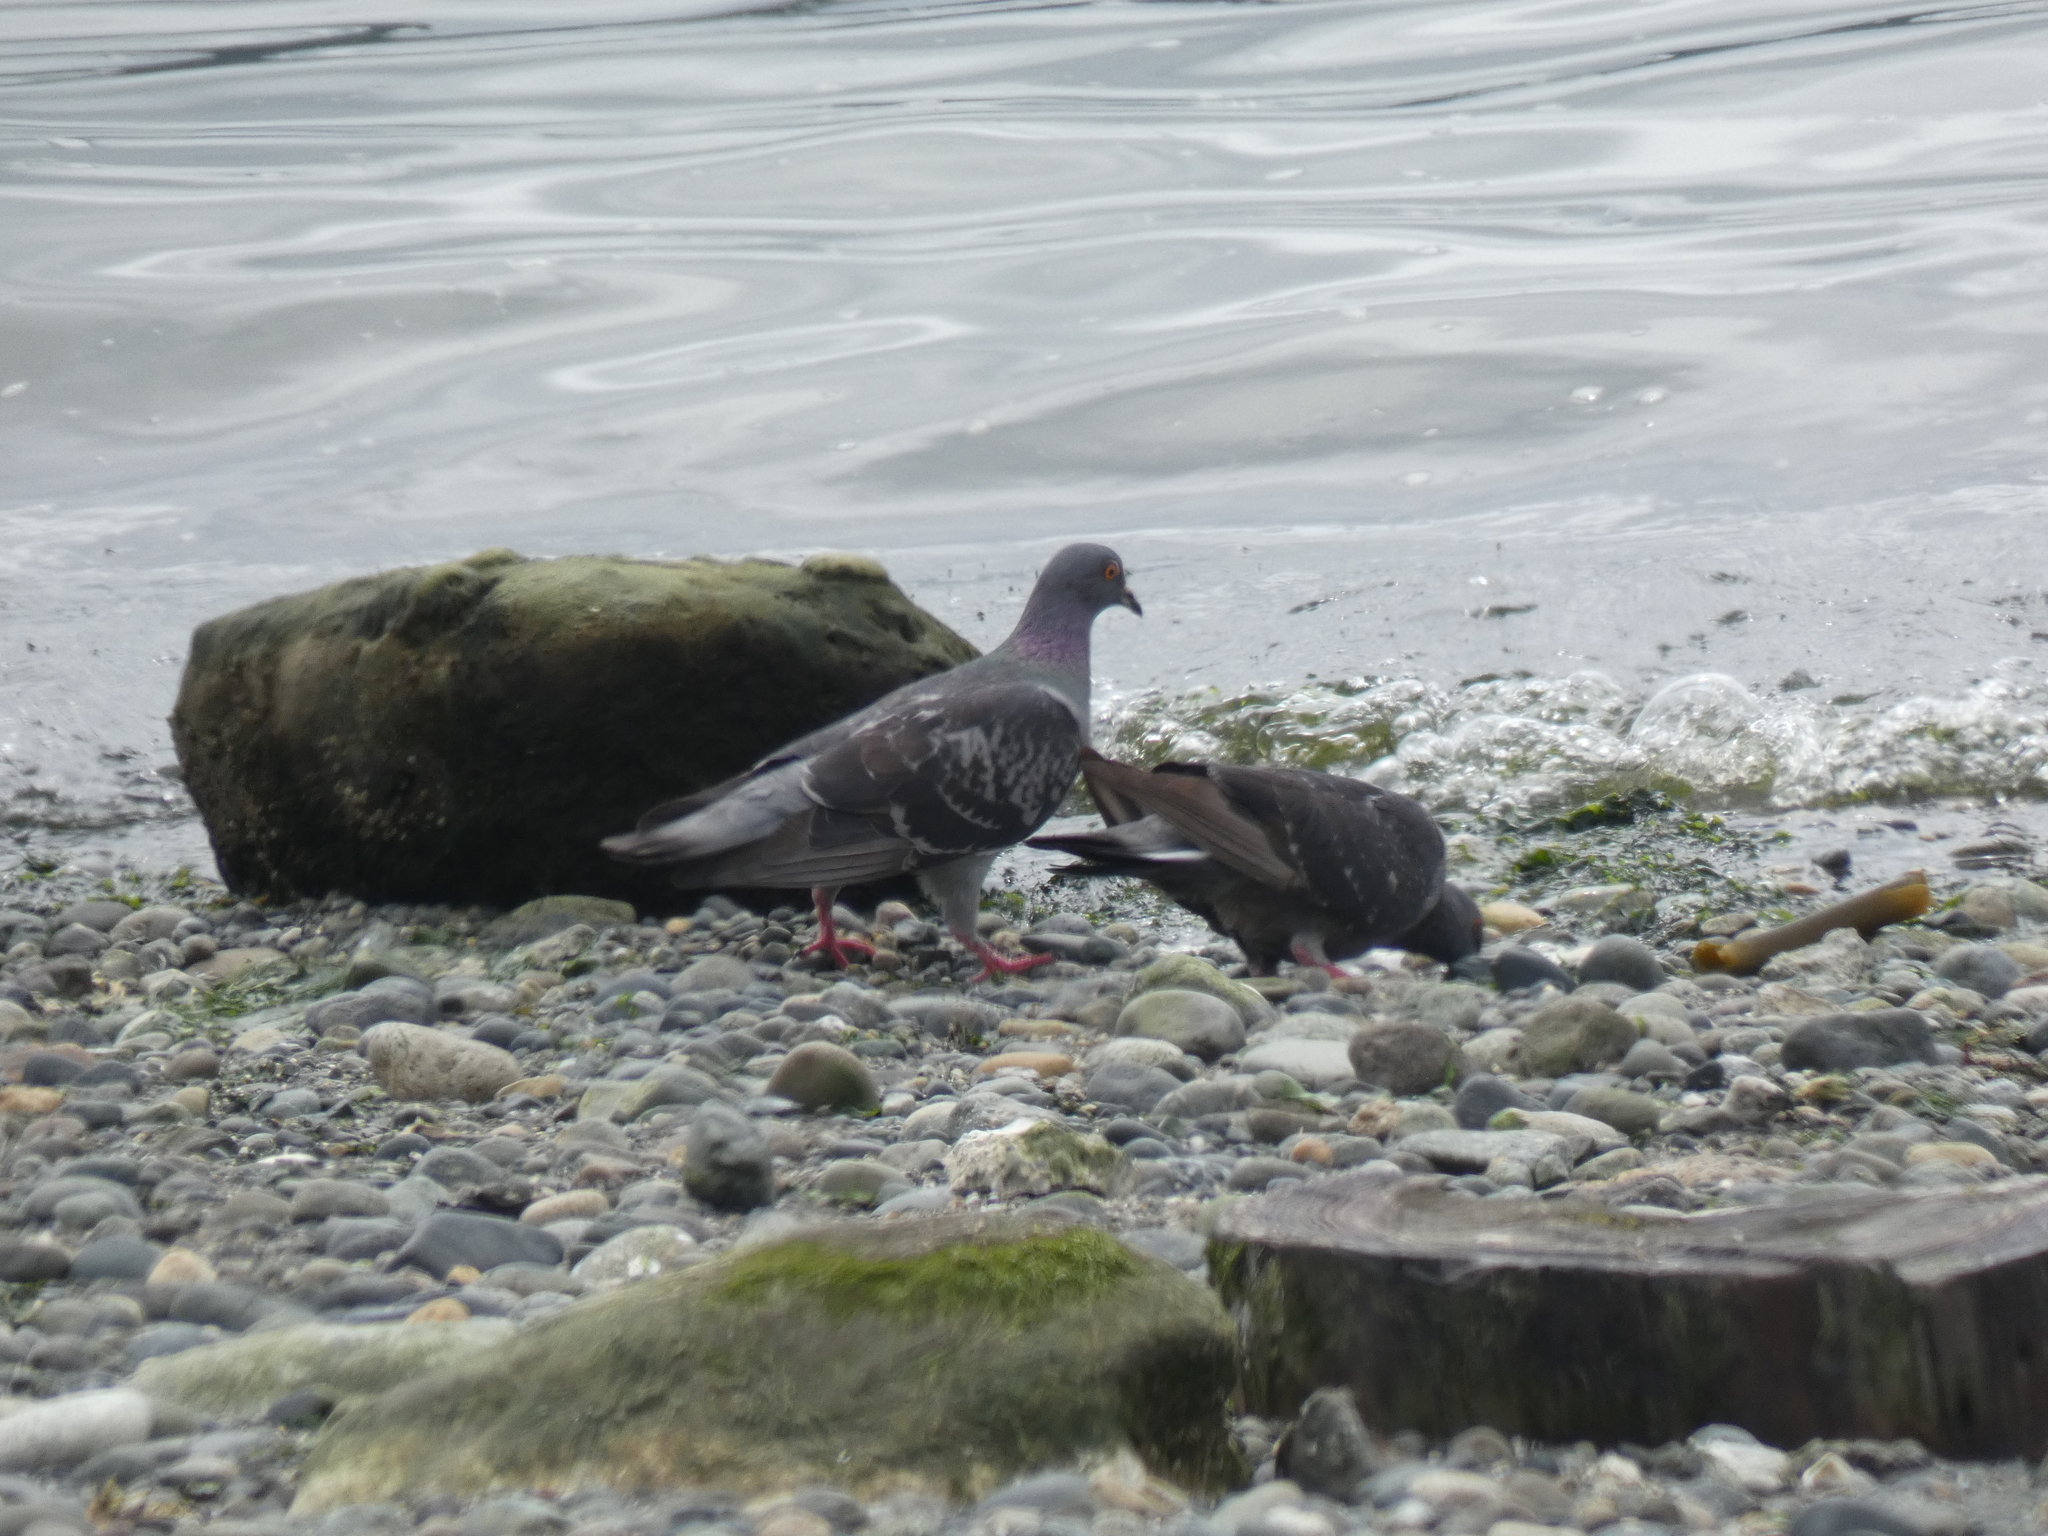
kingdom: Animalia
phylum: Chordata
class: Aves
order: Columbiformes
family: Columbidae
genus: Columba
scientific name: Columba livia
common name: Rock pigeon
